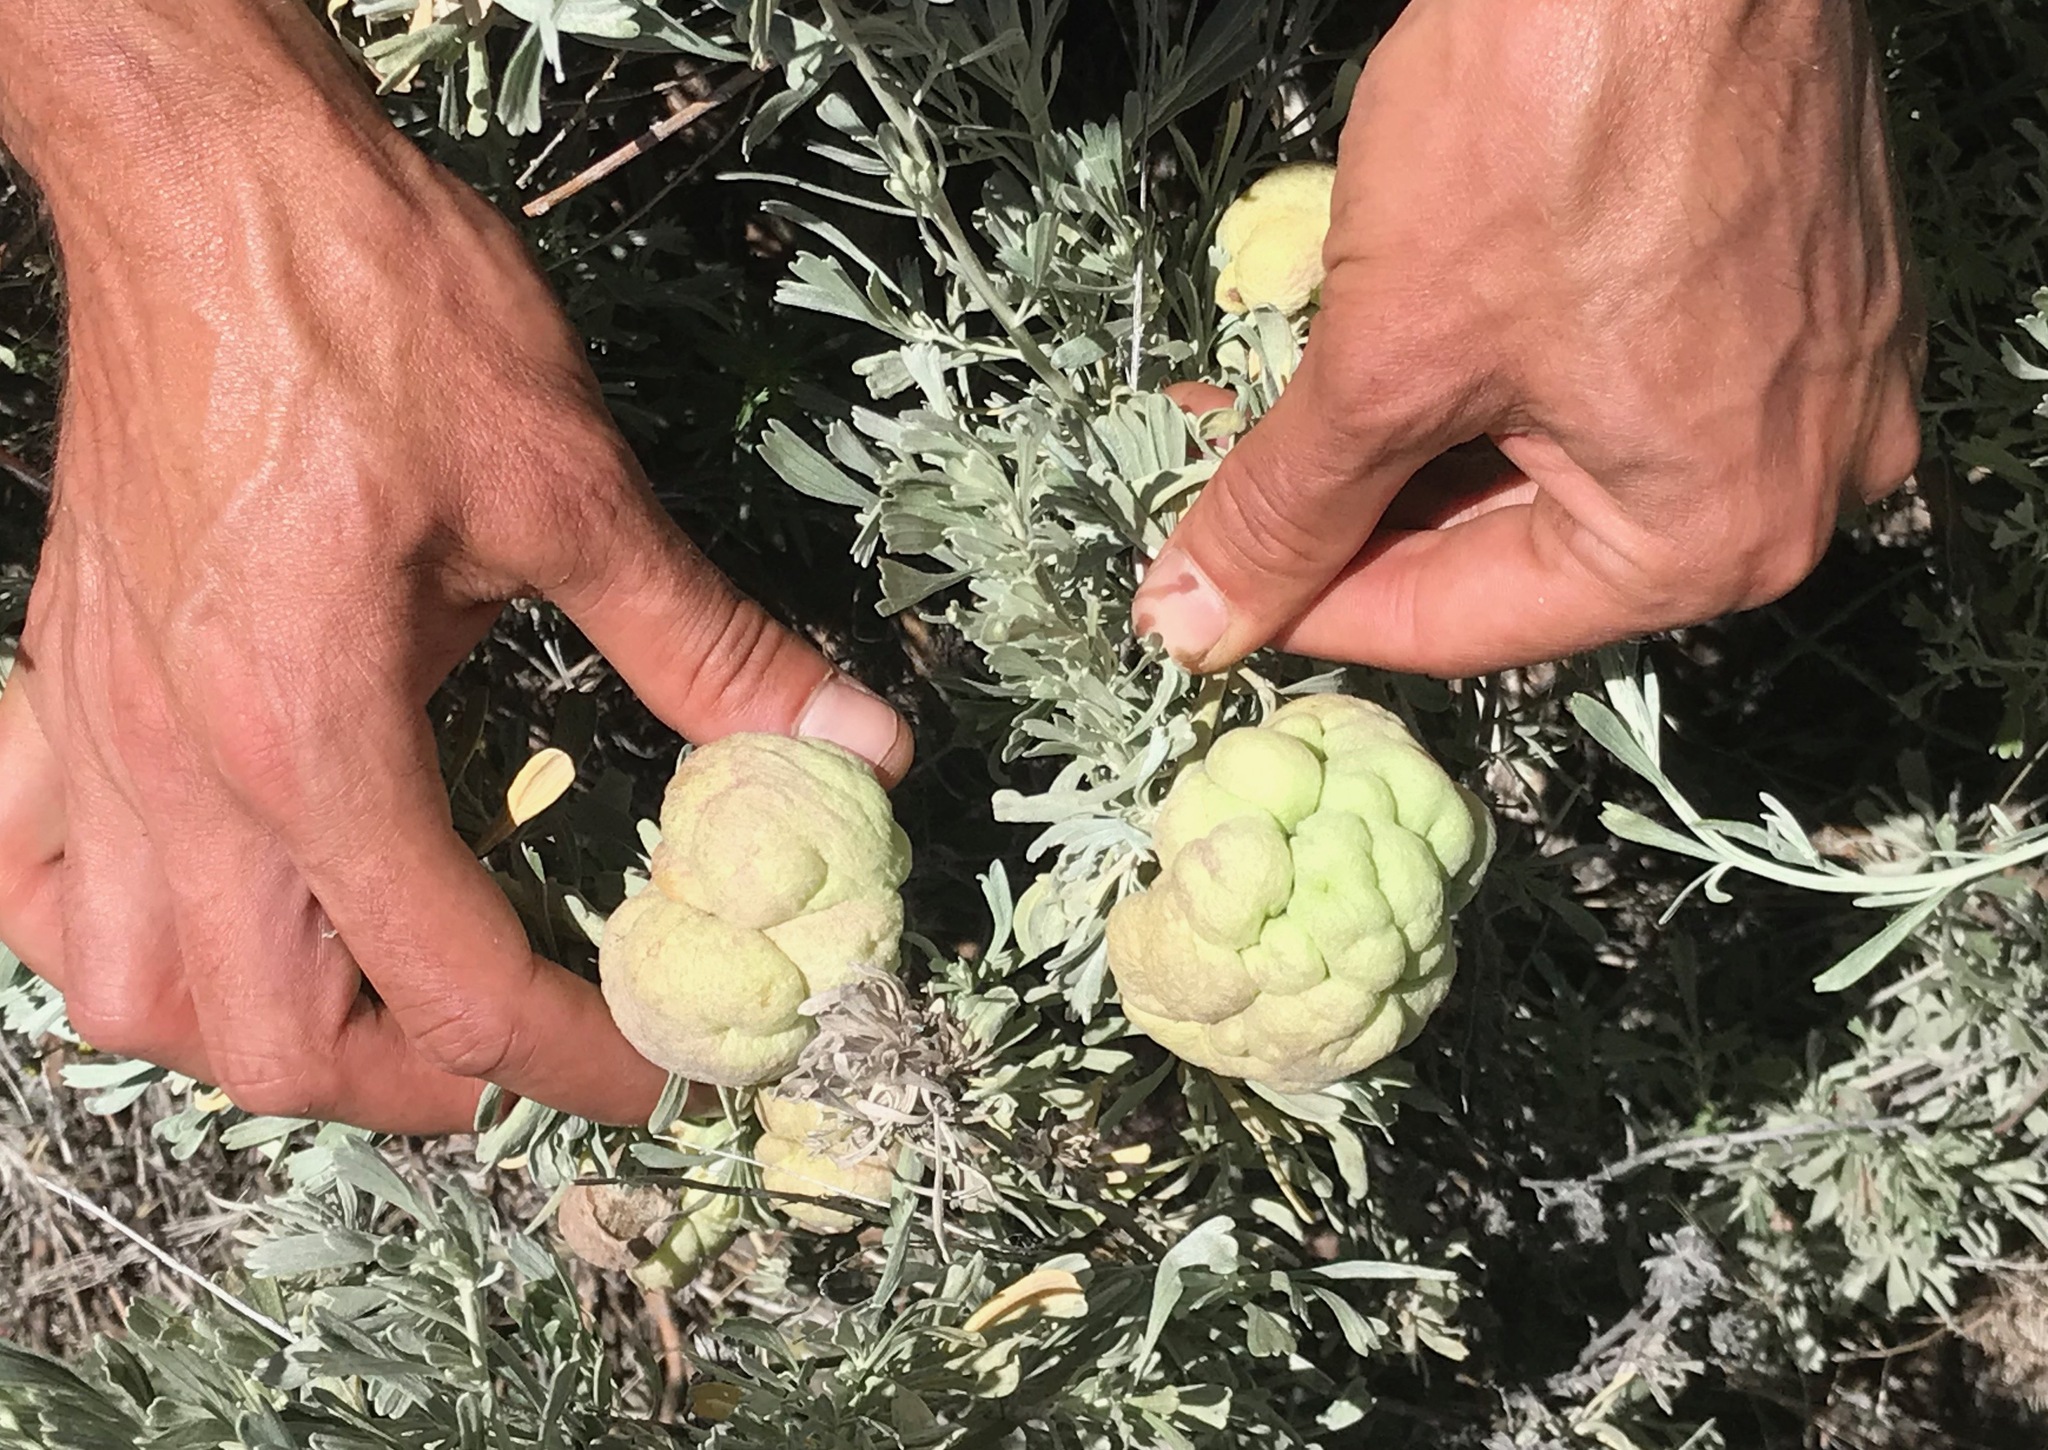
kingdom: Animalia
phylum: Arthropoda
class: Insecta
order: Diptera
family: Cecidomyiidae
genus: Rhopalomyia
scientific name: Rhopalomyia pomum
